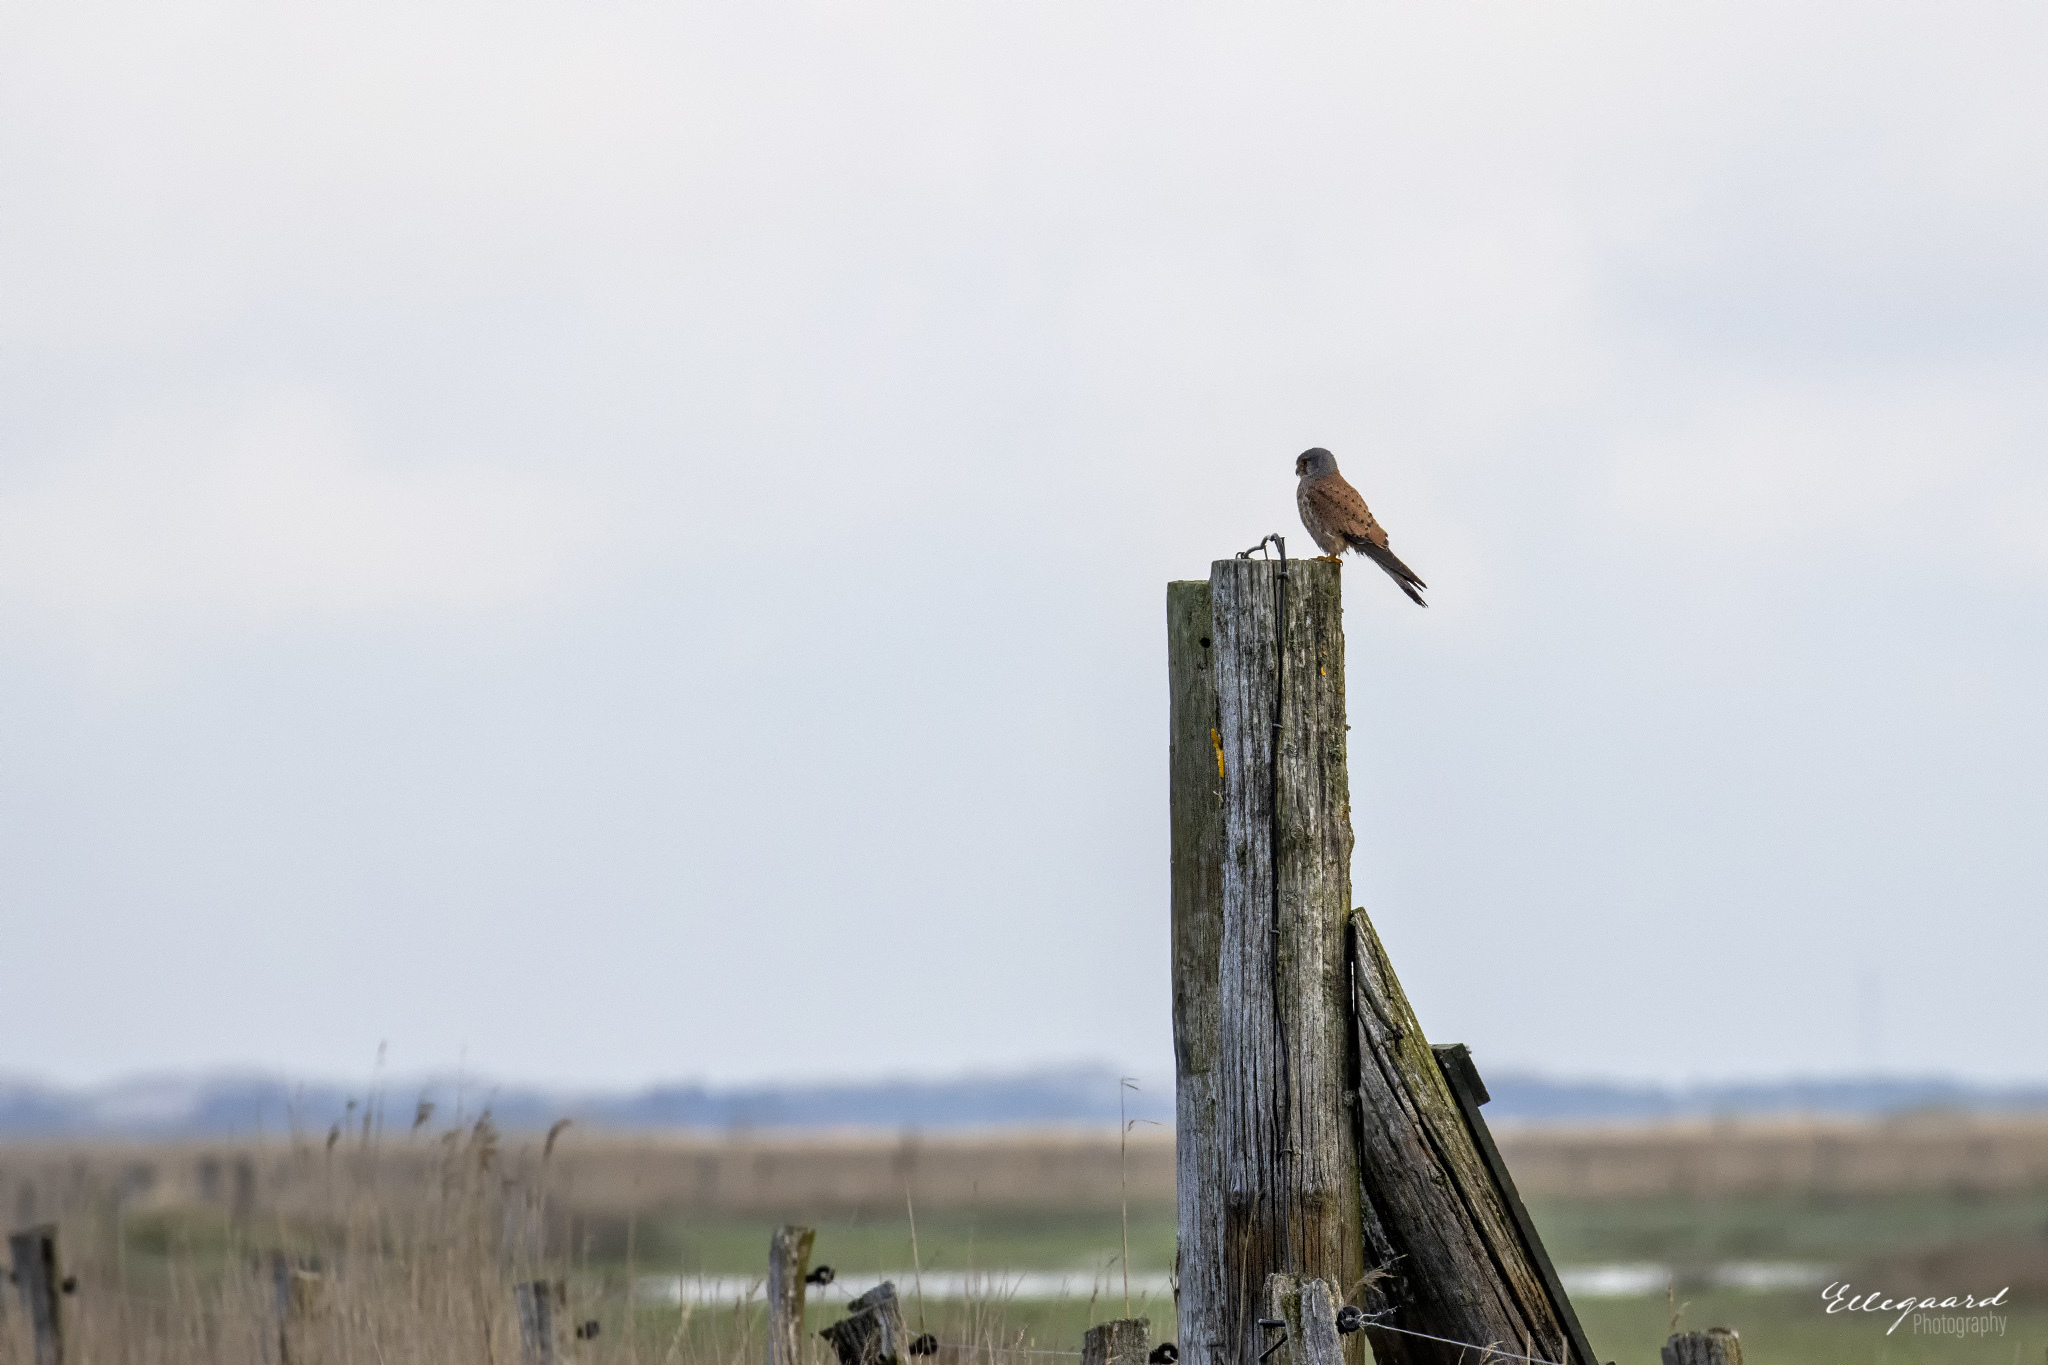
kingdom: Animalia
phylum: Chordata
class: Aves
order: Falconiformes
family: Falconidae
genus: Falco
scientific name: Falco tinnunculus
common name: Common kestrel
